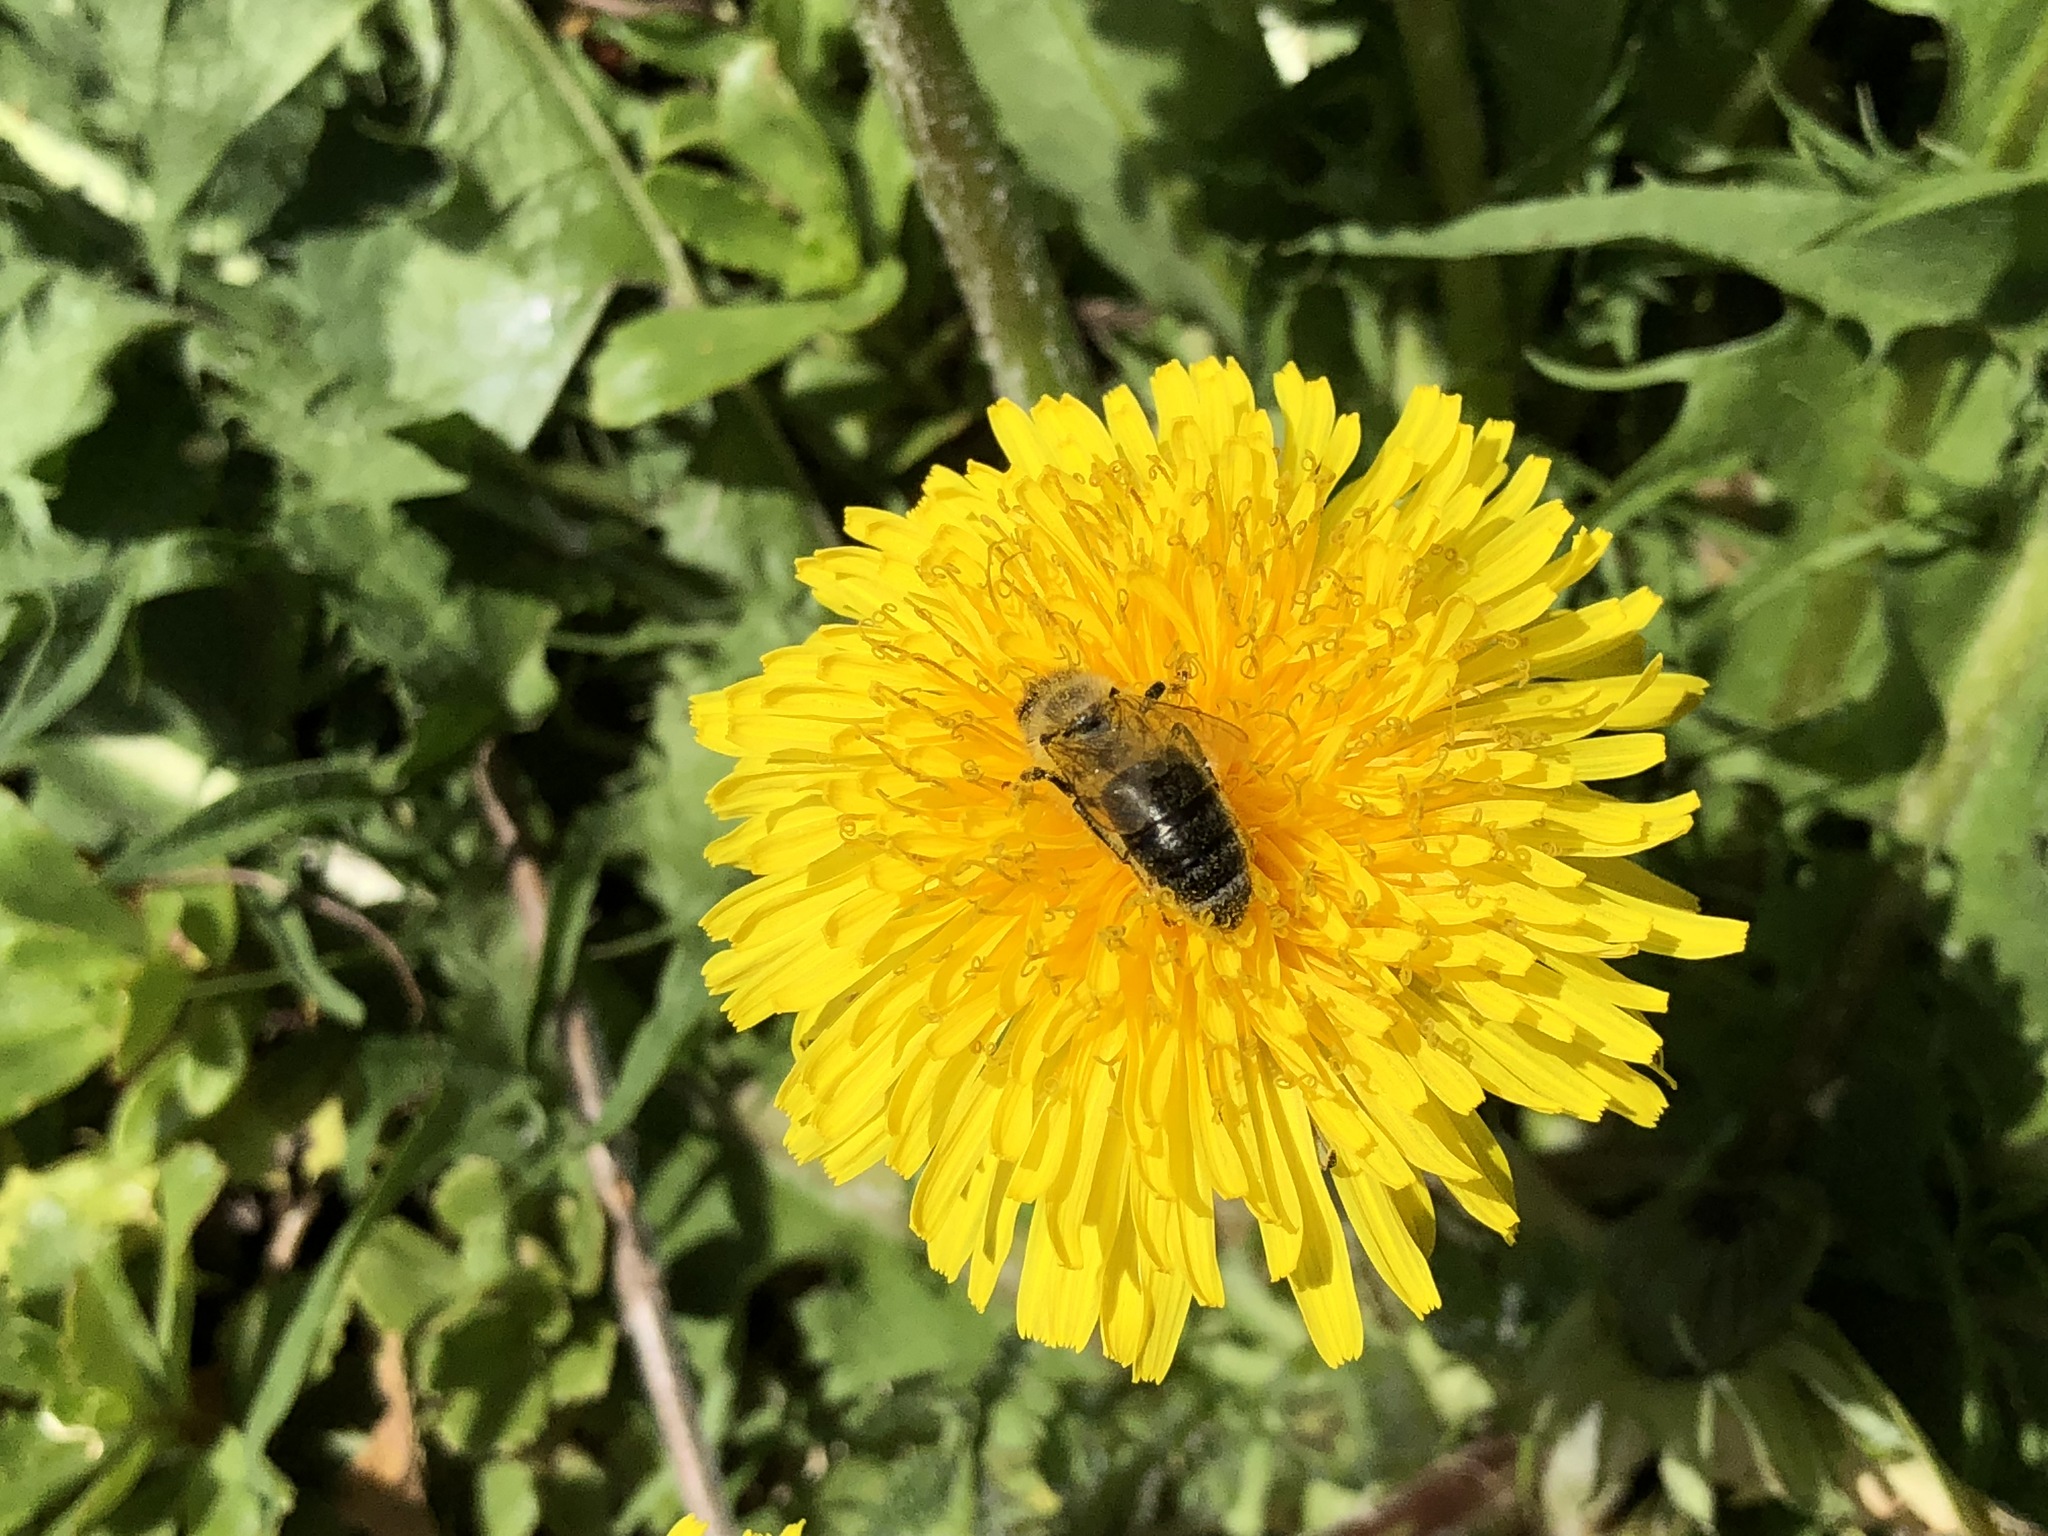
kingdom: Animalia
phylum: Arthropoda
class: Insecta
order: Hymenoptera
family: Apidae
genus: Apis
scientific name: Apis mellifera
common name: Honey bee
